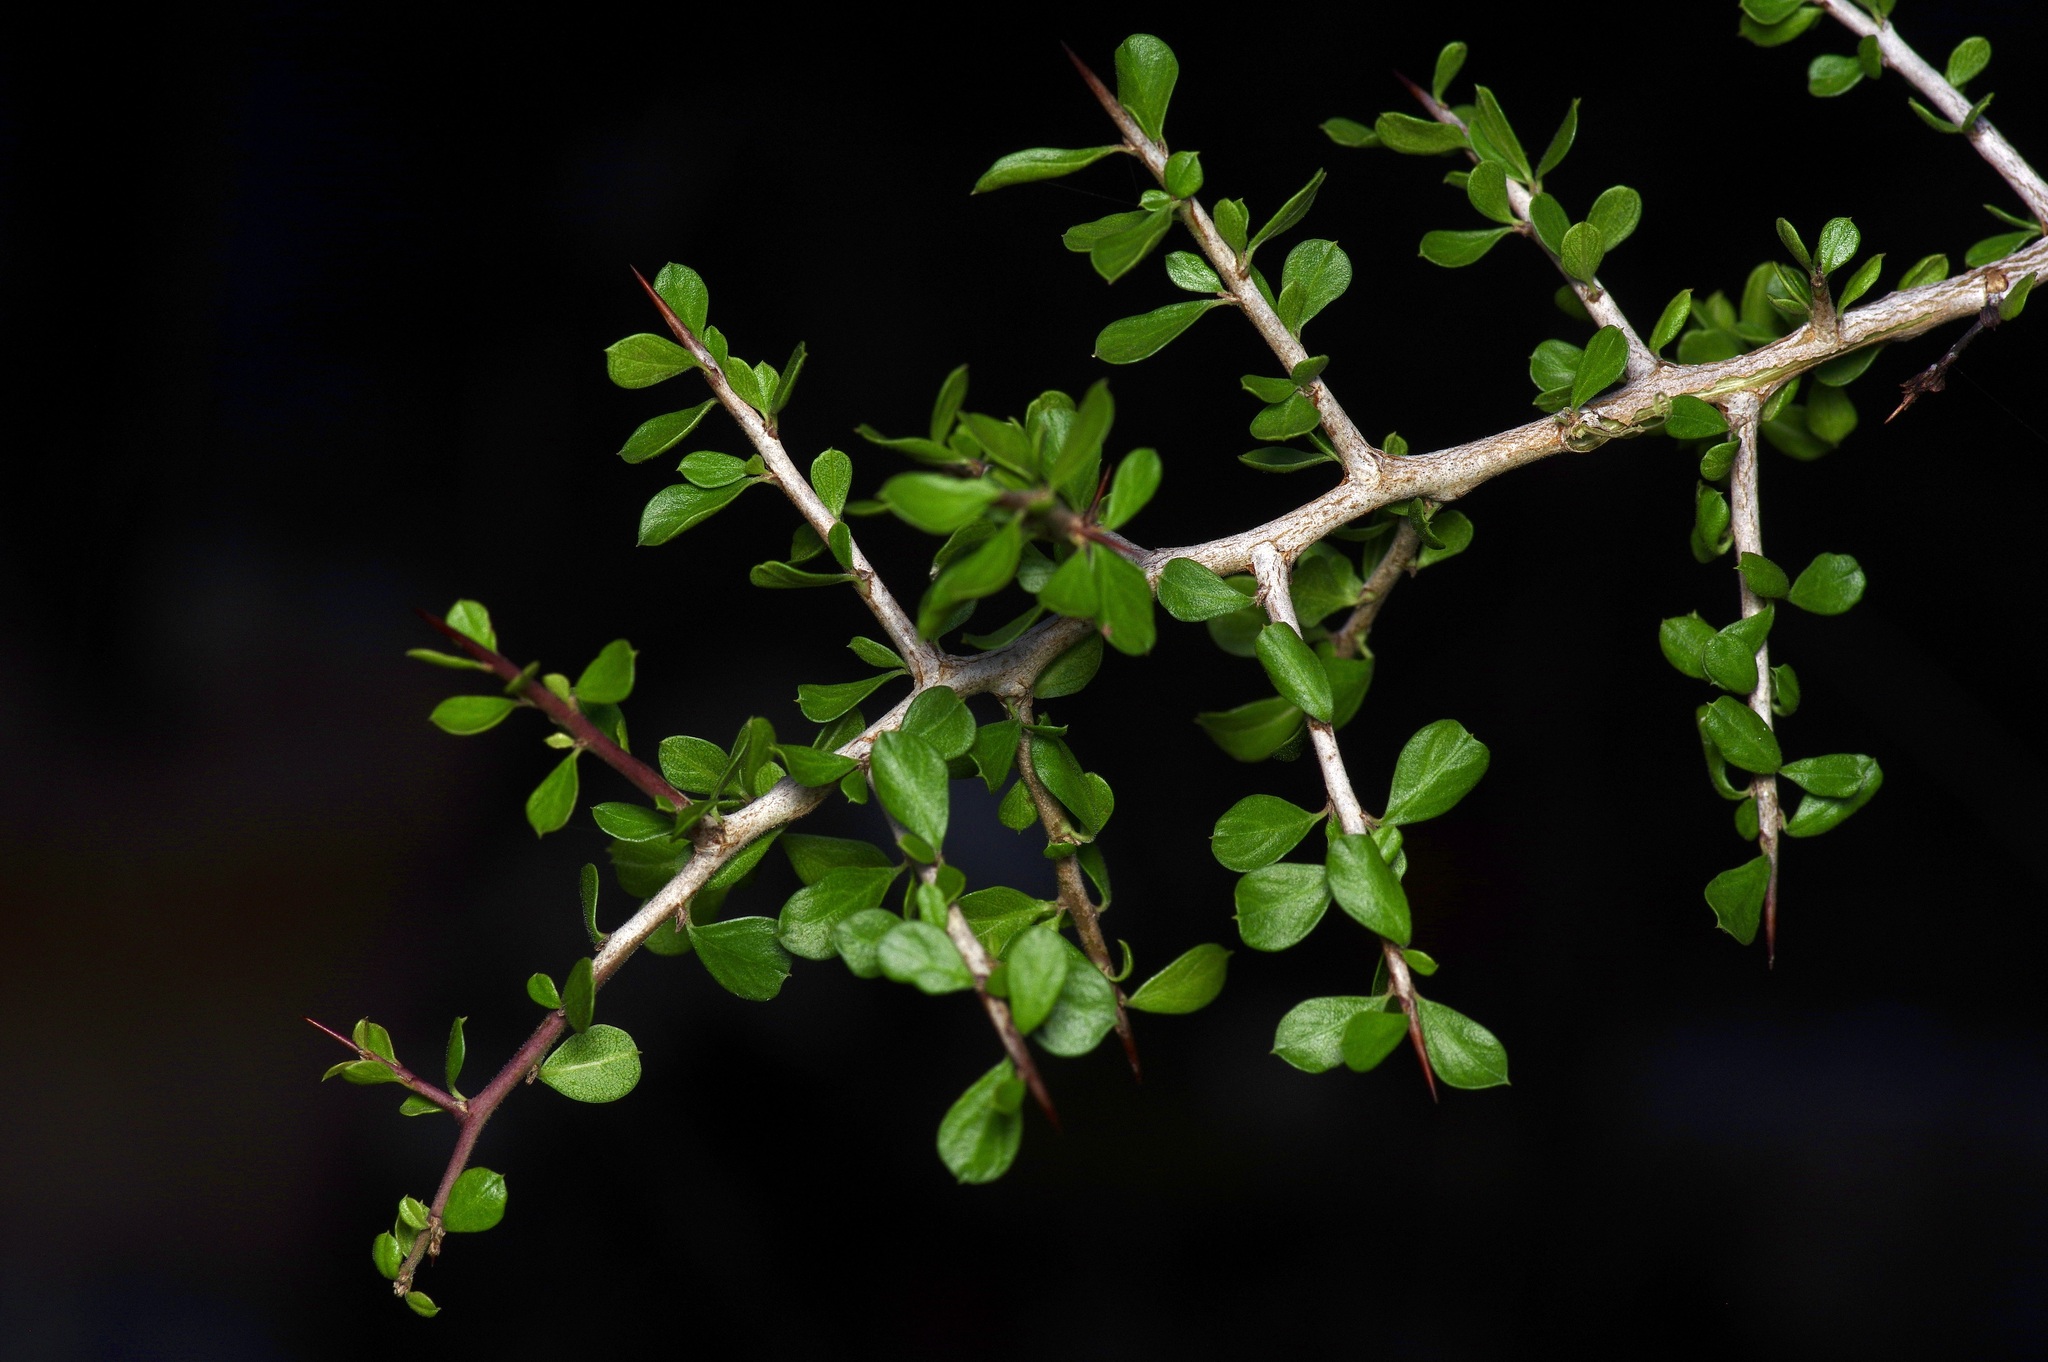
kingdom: Plantae
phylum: Tracheophyta
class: Magnoliopsida
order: Rosales
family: Rhamnaceae
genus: Condalia
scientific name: Condalia viridis
